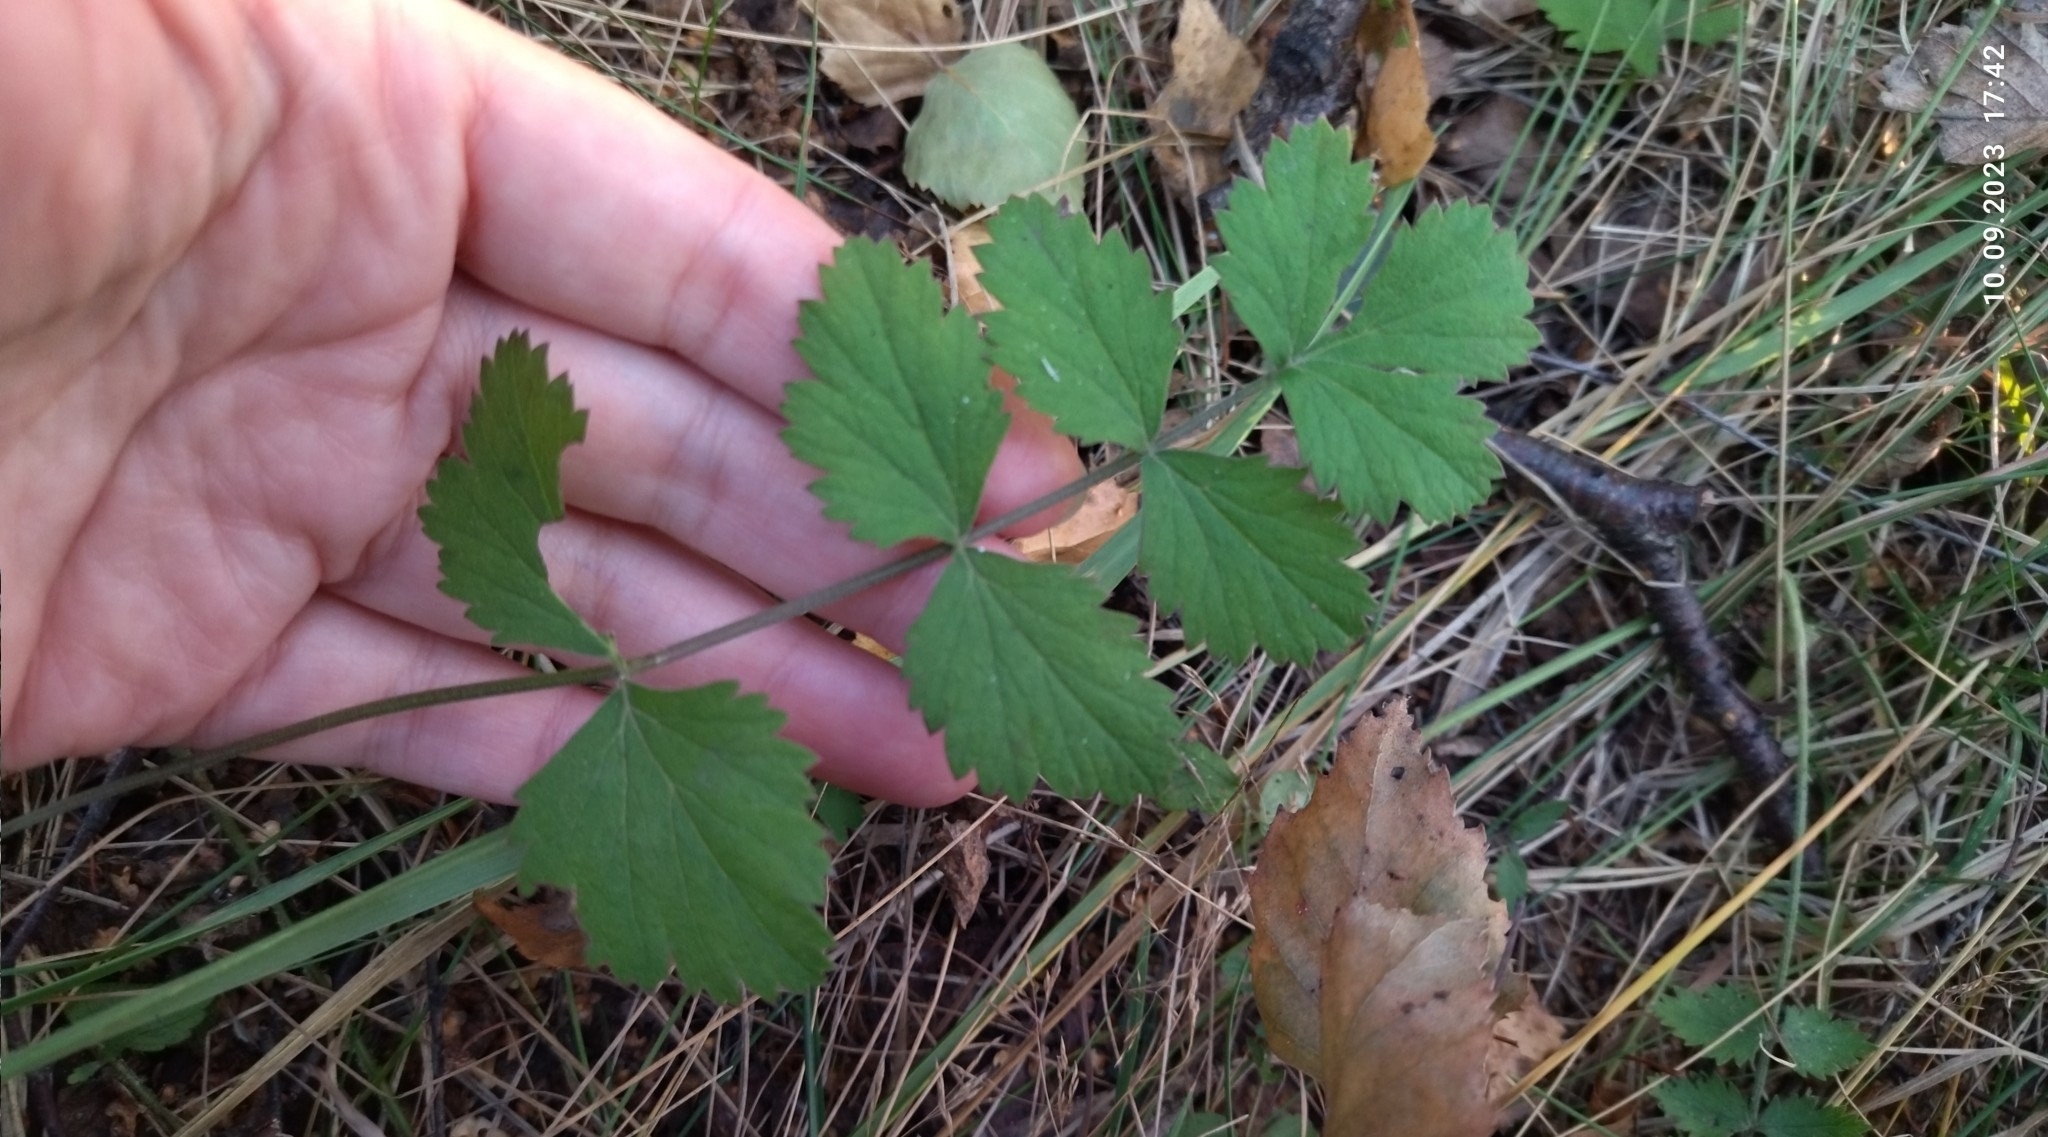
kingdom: Plantae
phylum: Tracheophyta
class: Magnoliopsida
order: Apiales
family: Apiaceae
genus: Pimpinella
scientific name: Pimpinella saxifraga
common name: Burnet-saxifrage
